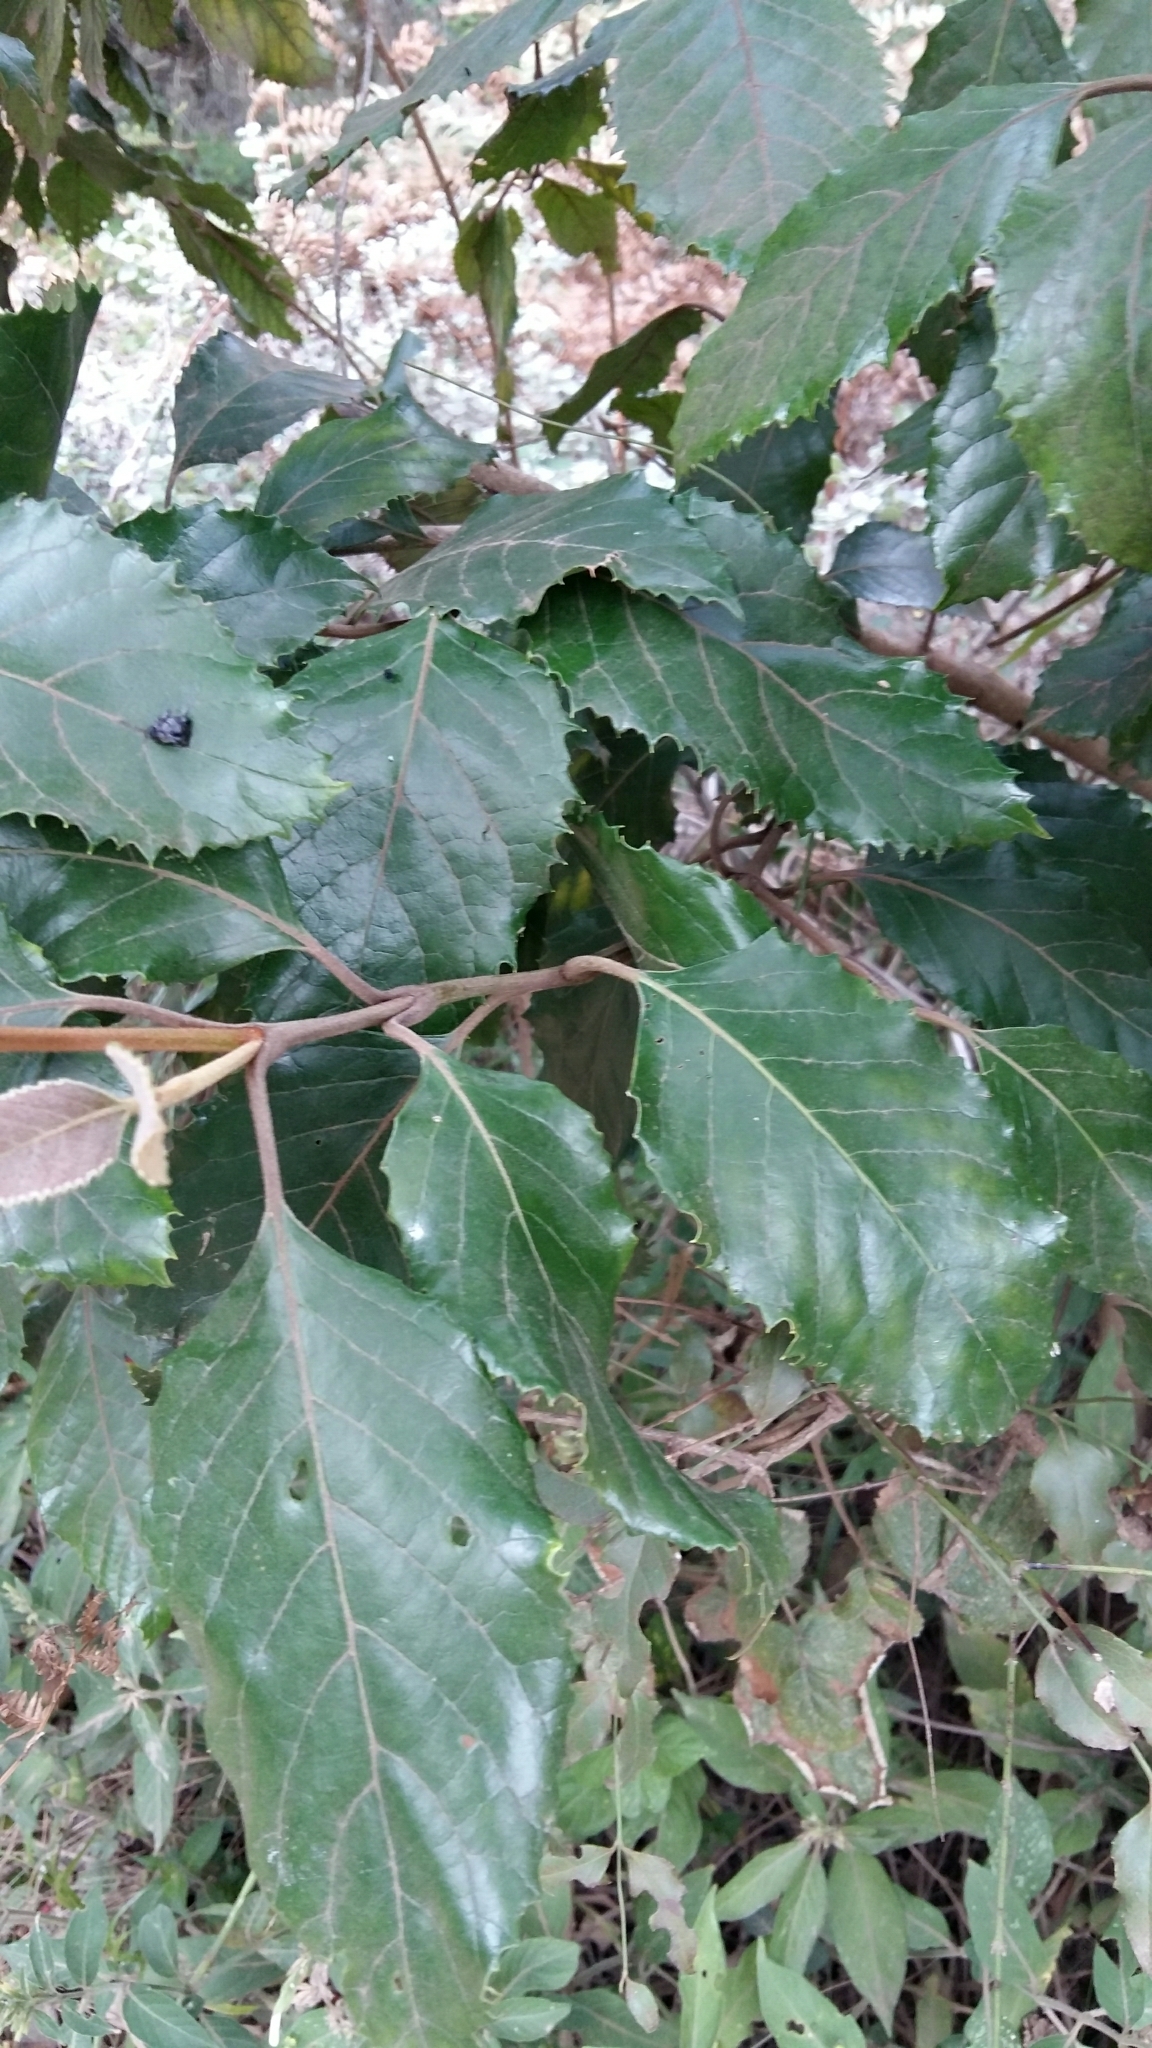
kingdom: Plantae
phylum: Tracheophyta
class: Magnoliopsida
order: Cornales
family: Curtisiaceae
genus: Curtisia
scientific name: Curtisia dentata
